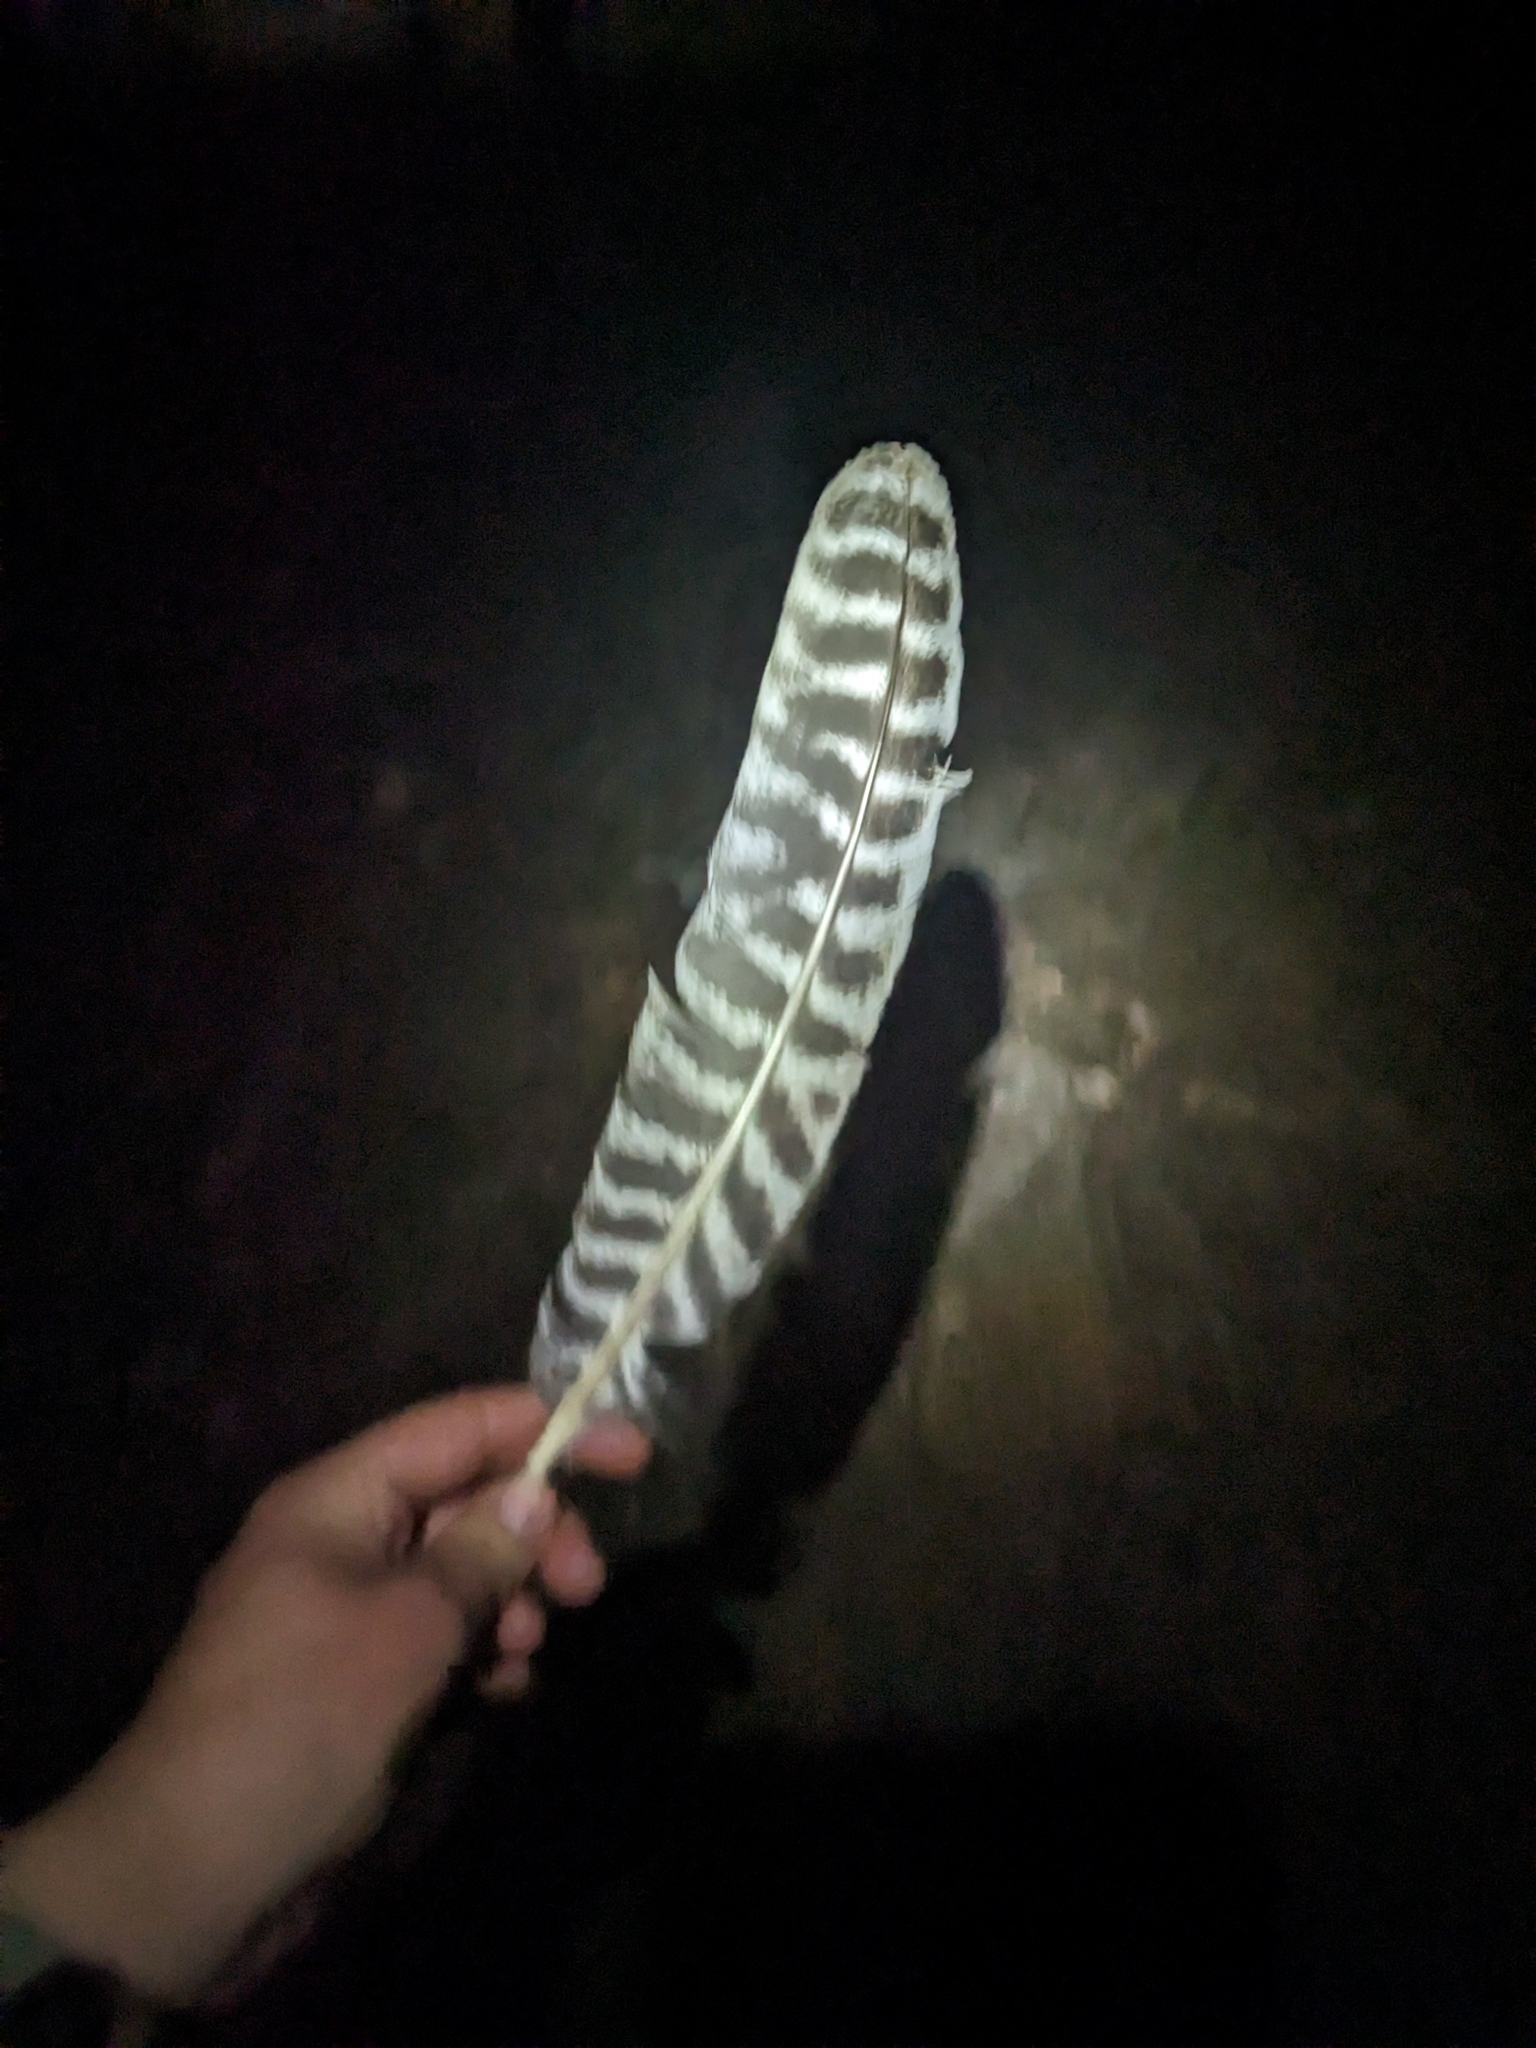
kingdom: Animalia
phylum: Chordata
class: Aves
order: Galliformes
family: Phasianidae
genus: Meleagris
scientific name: Meleagris gallopavo
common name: Wild turkey
